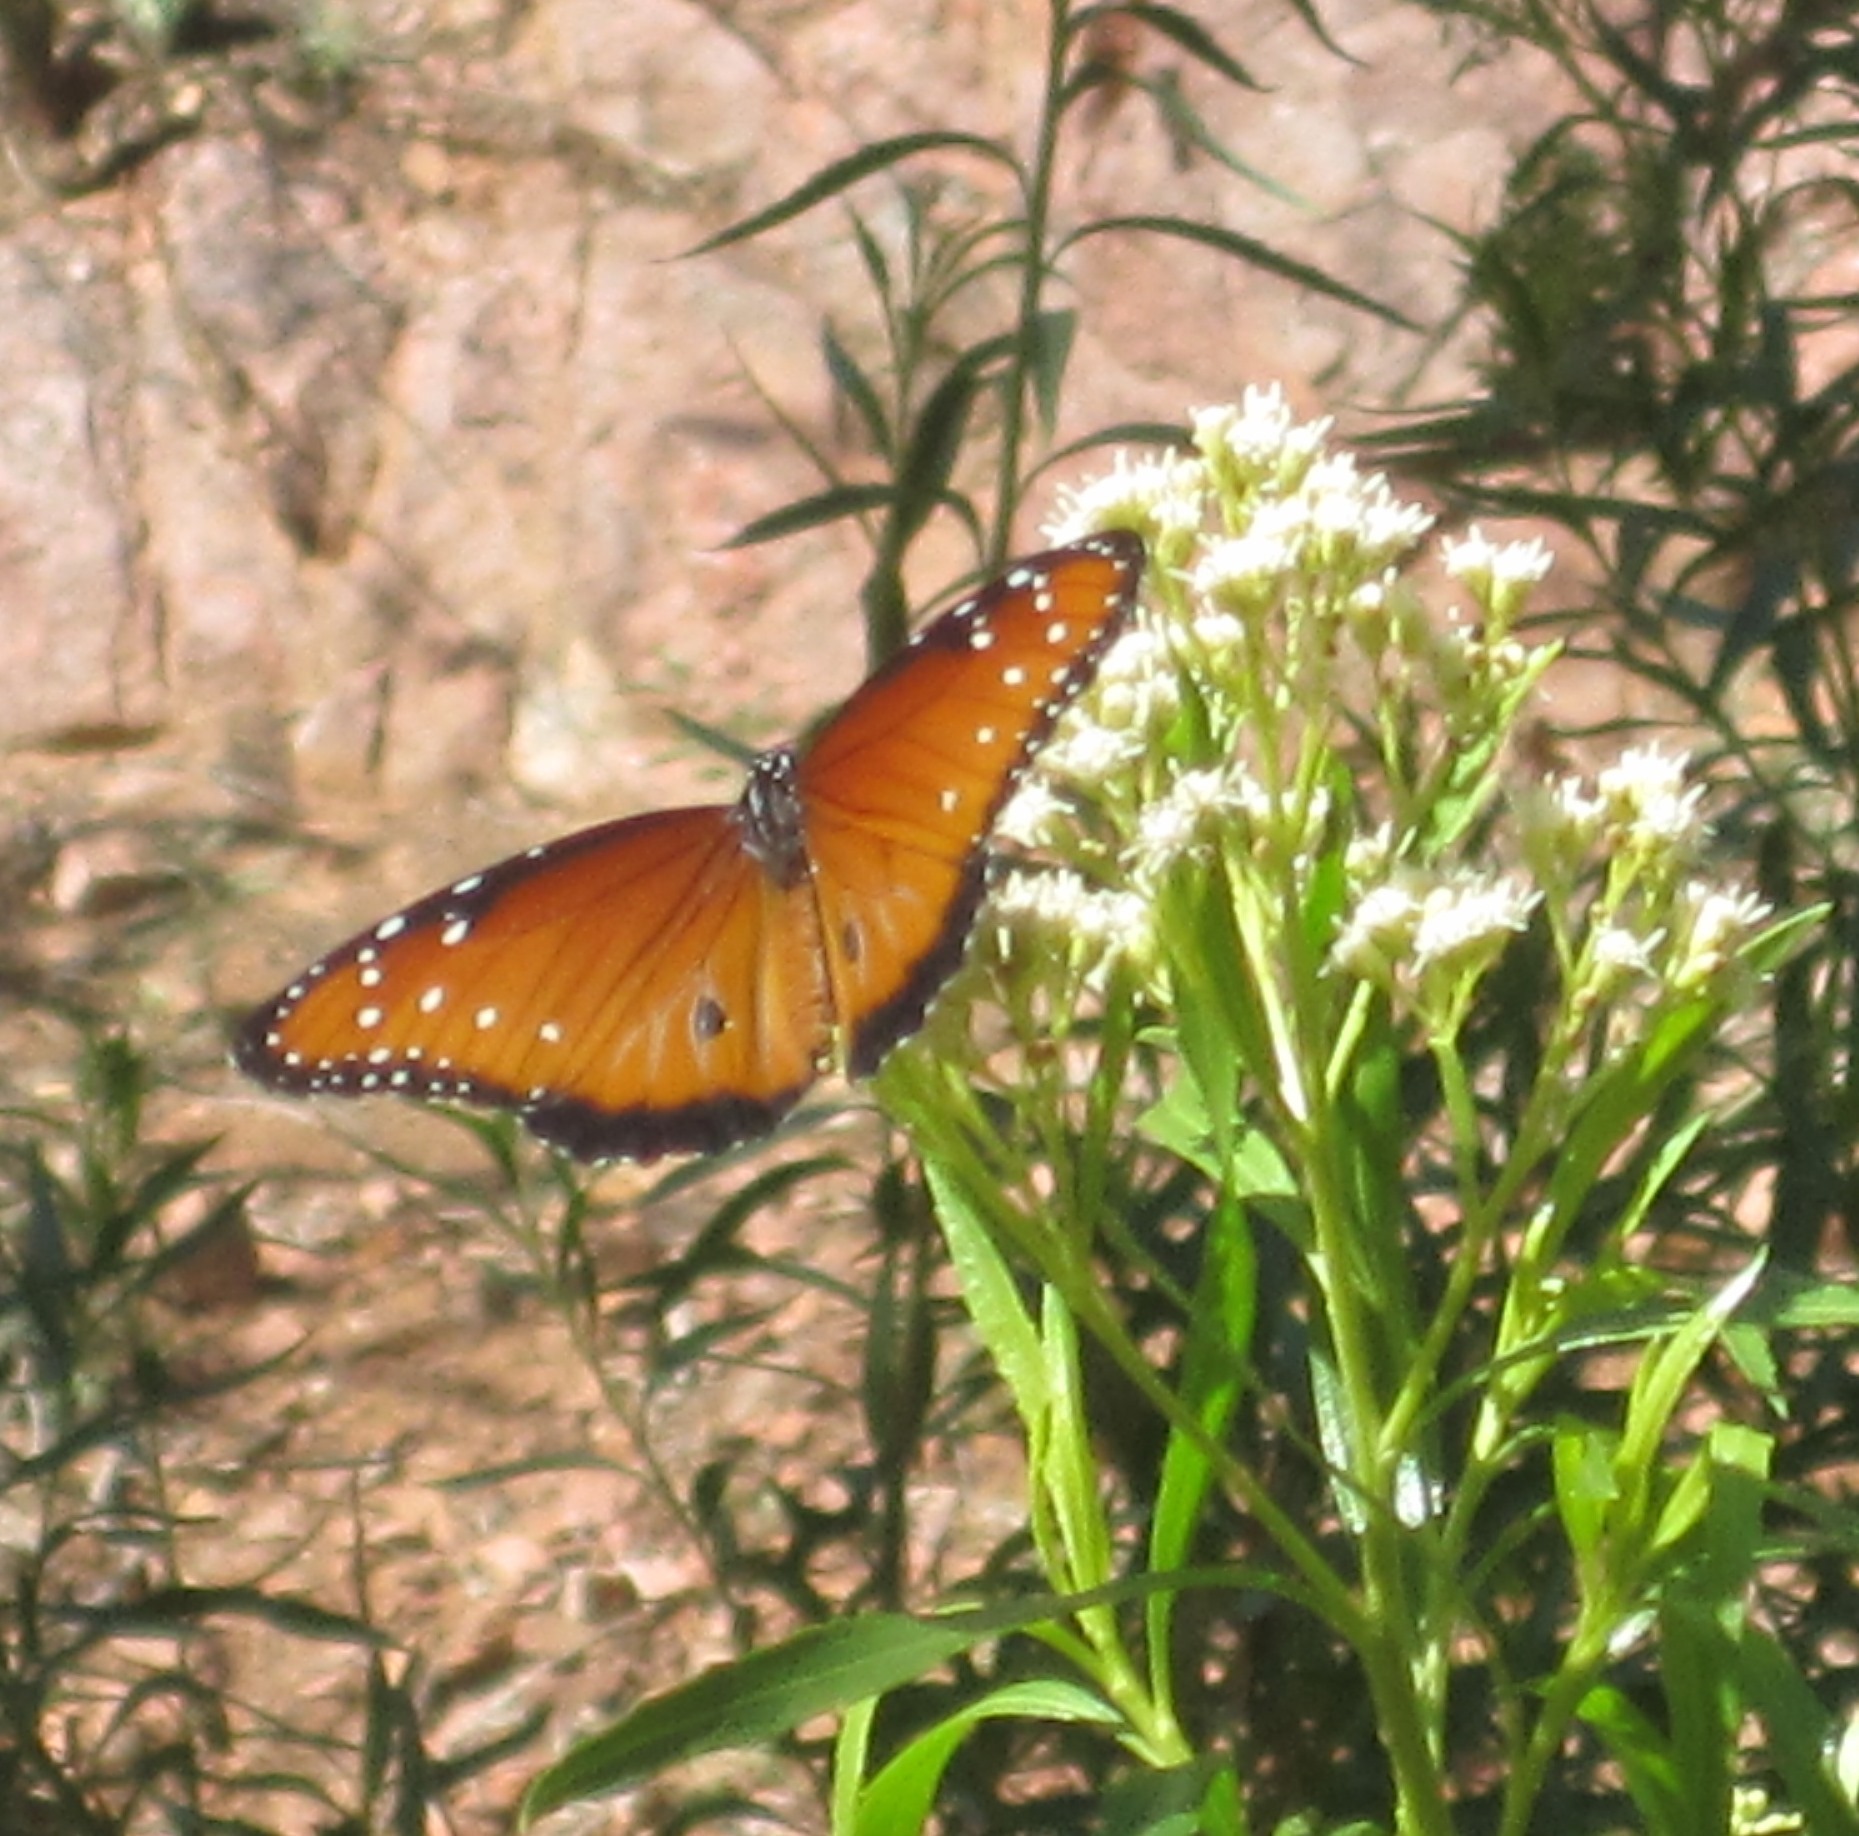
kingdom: Animalia
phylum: Arthropoda
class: Insecta
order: Lepidoptera
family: Nymphalidae
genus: Danaus
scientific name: Danaus gilippus
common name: Queen
